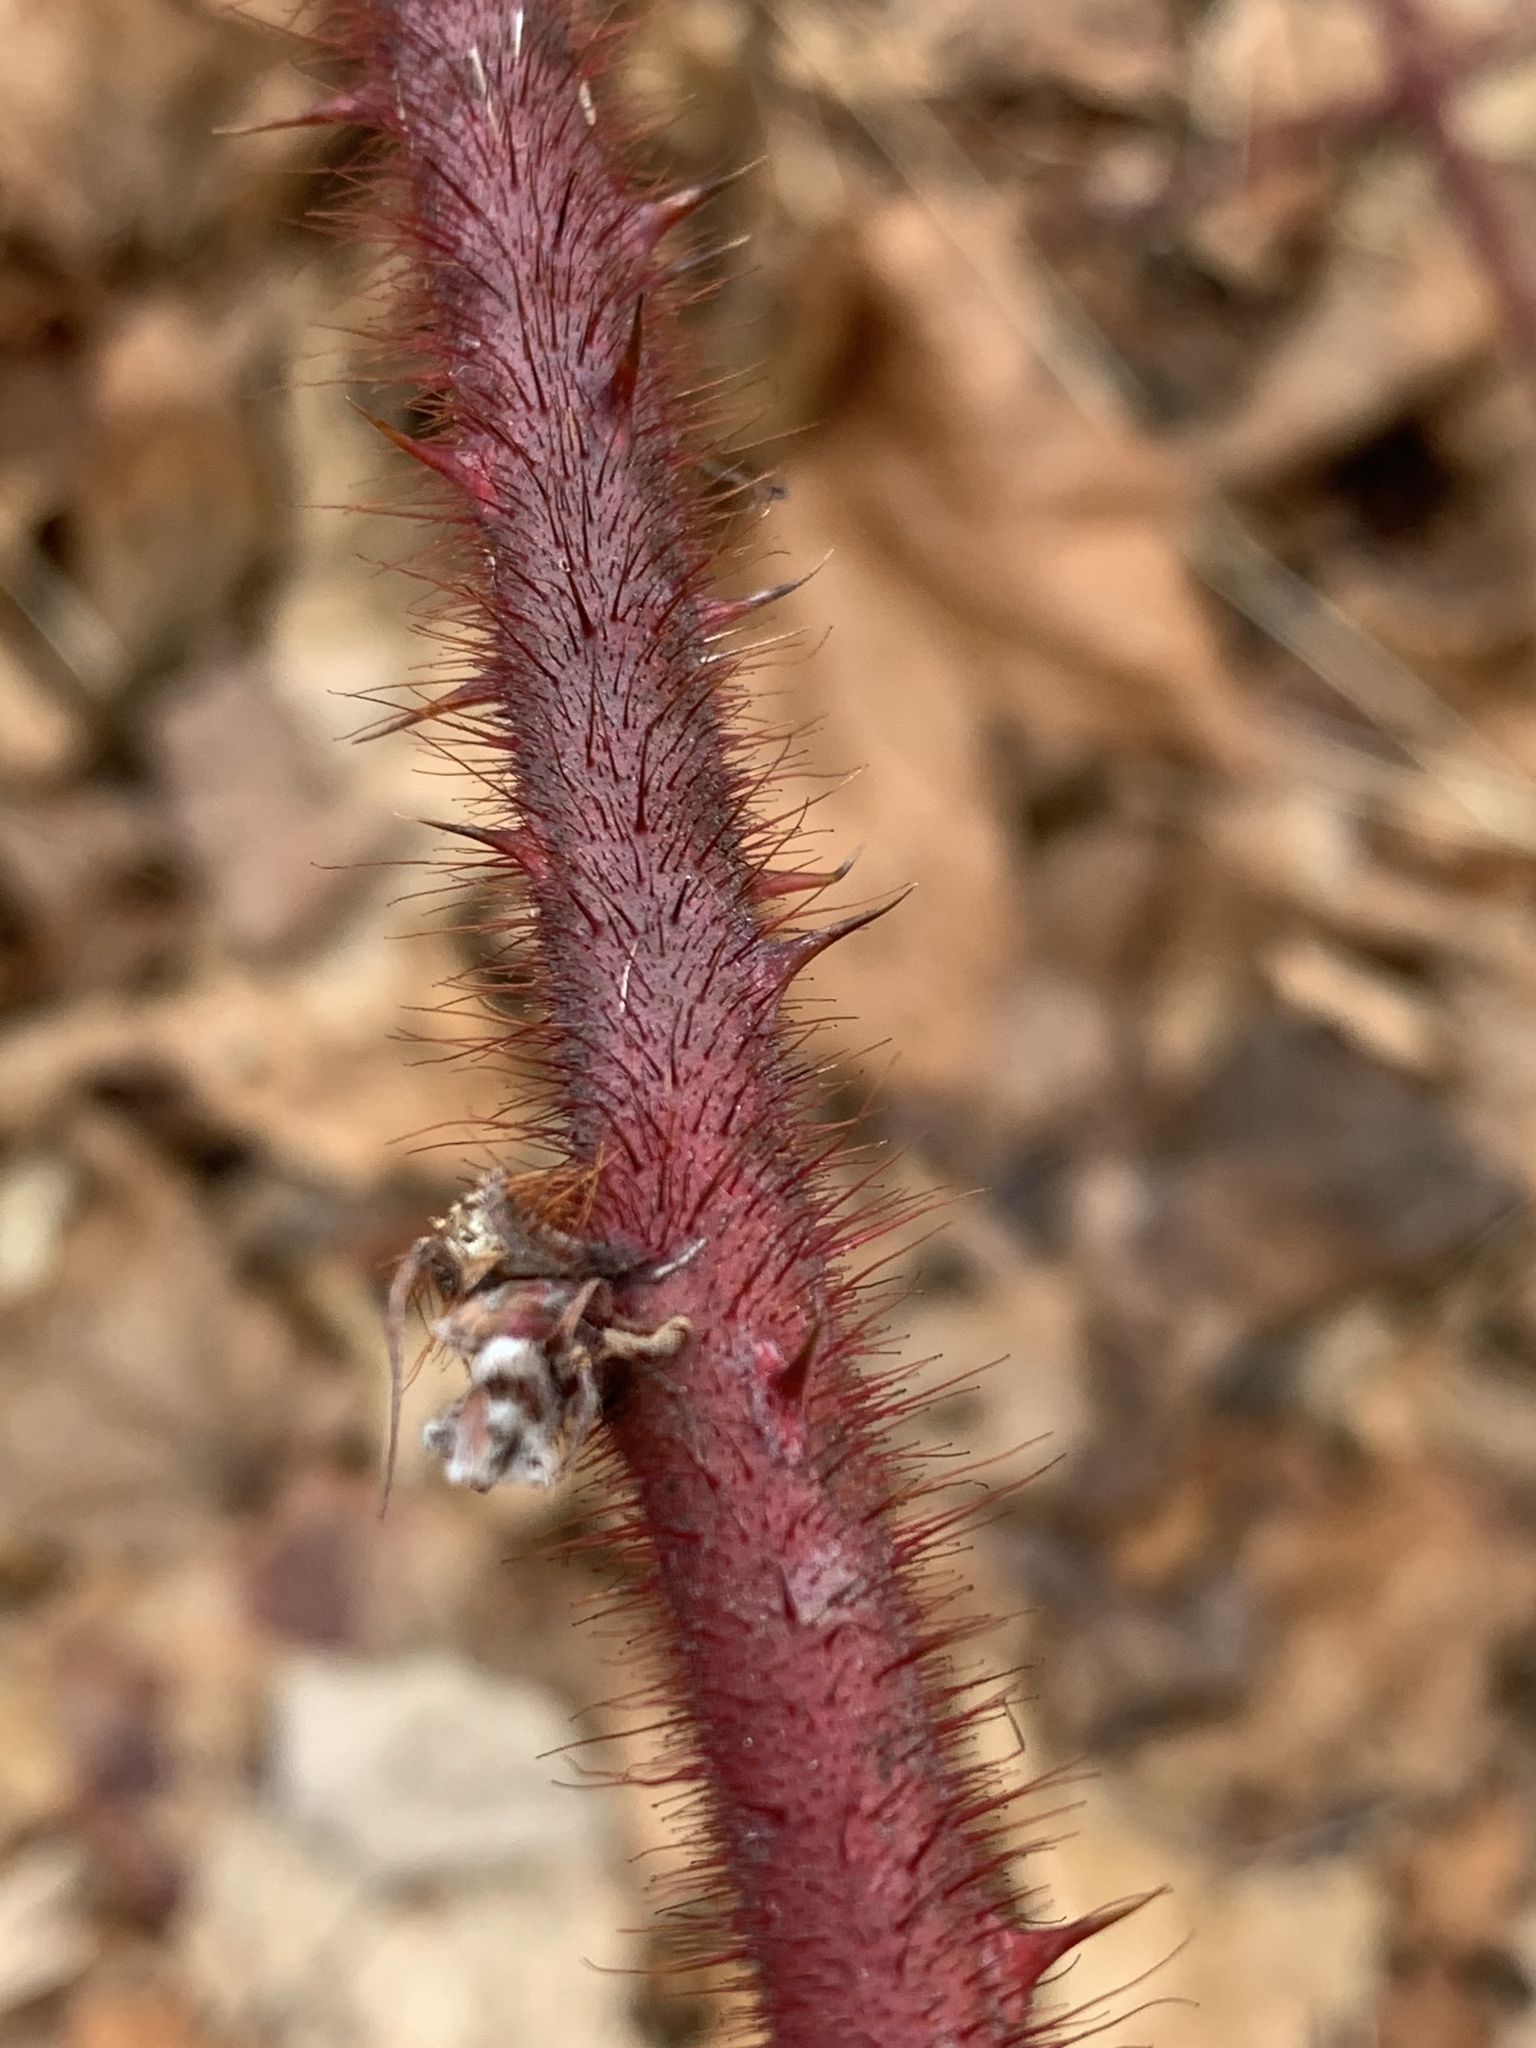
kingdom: Plantae
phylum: Tracheophyta
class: Magnoliopsida
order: Rosales
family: Rosaceae
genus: Rubus
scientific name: Rubus phoenicolasius
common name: Japanese wineberry
